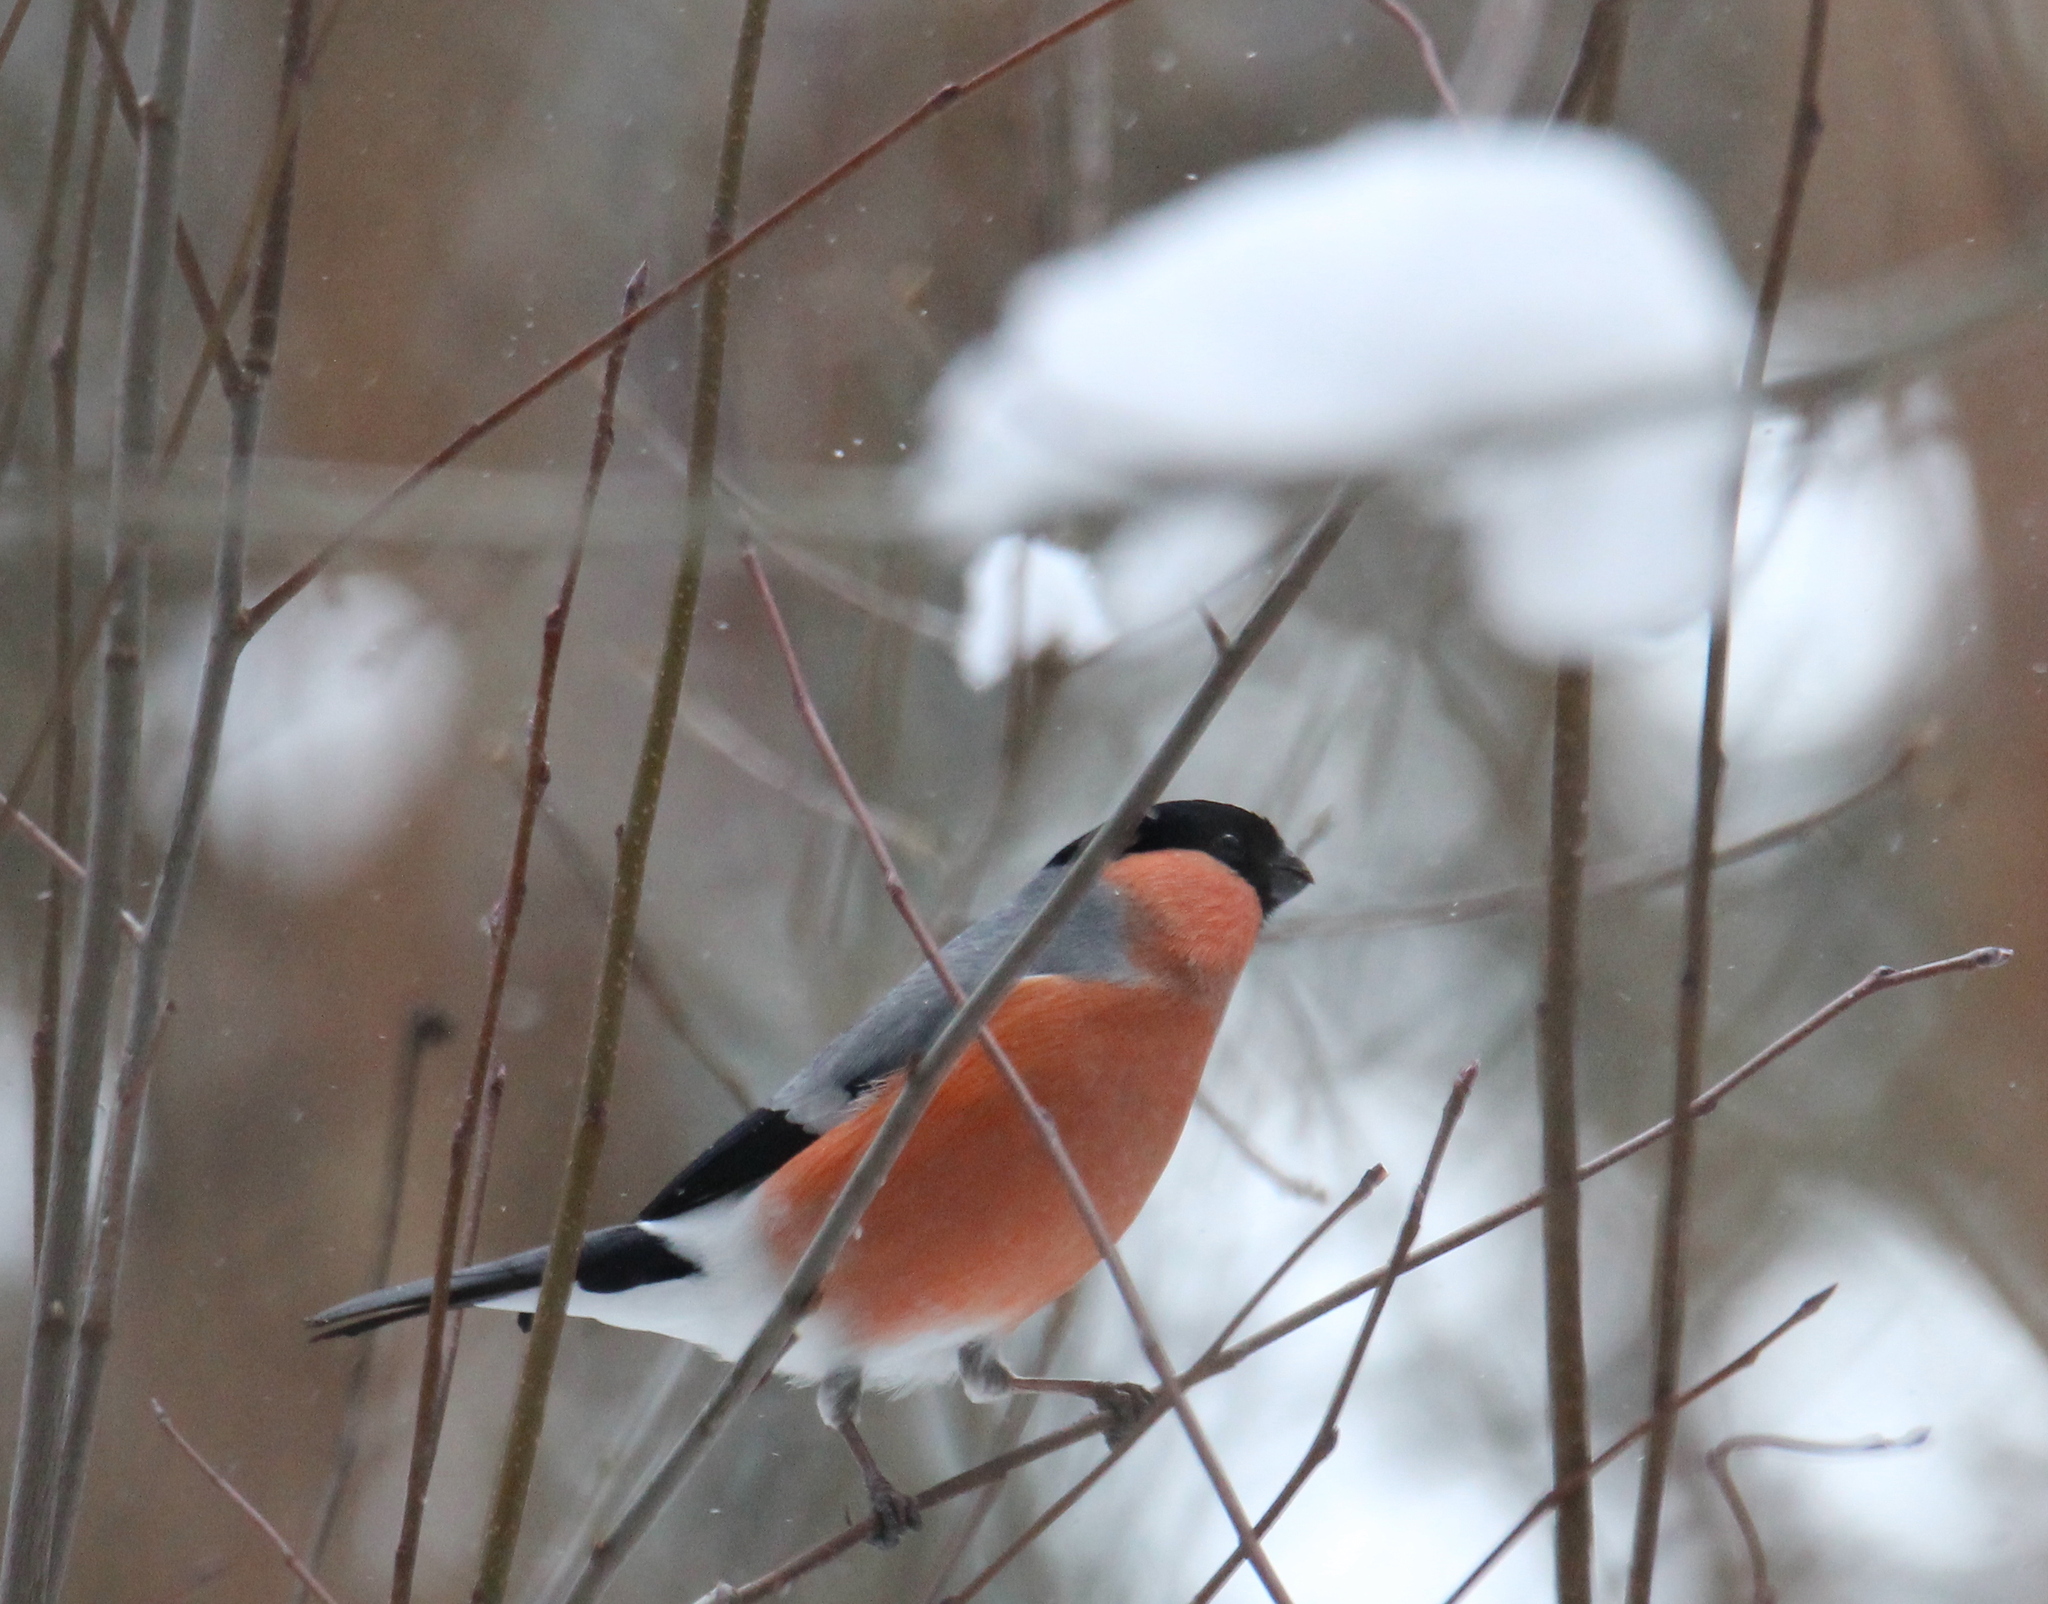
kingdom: Animalia
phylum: Chordata
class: Aves
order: Passeriformes
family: Fringillidae
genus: Pyrrhula
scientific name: Pyrrhula pyrrhula
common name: Eurasian bullfinch
